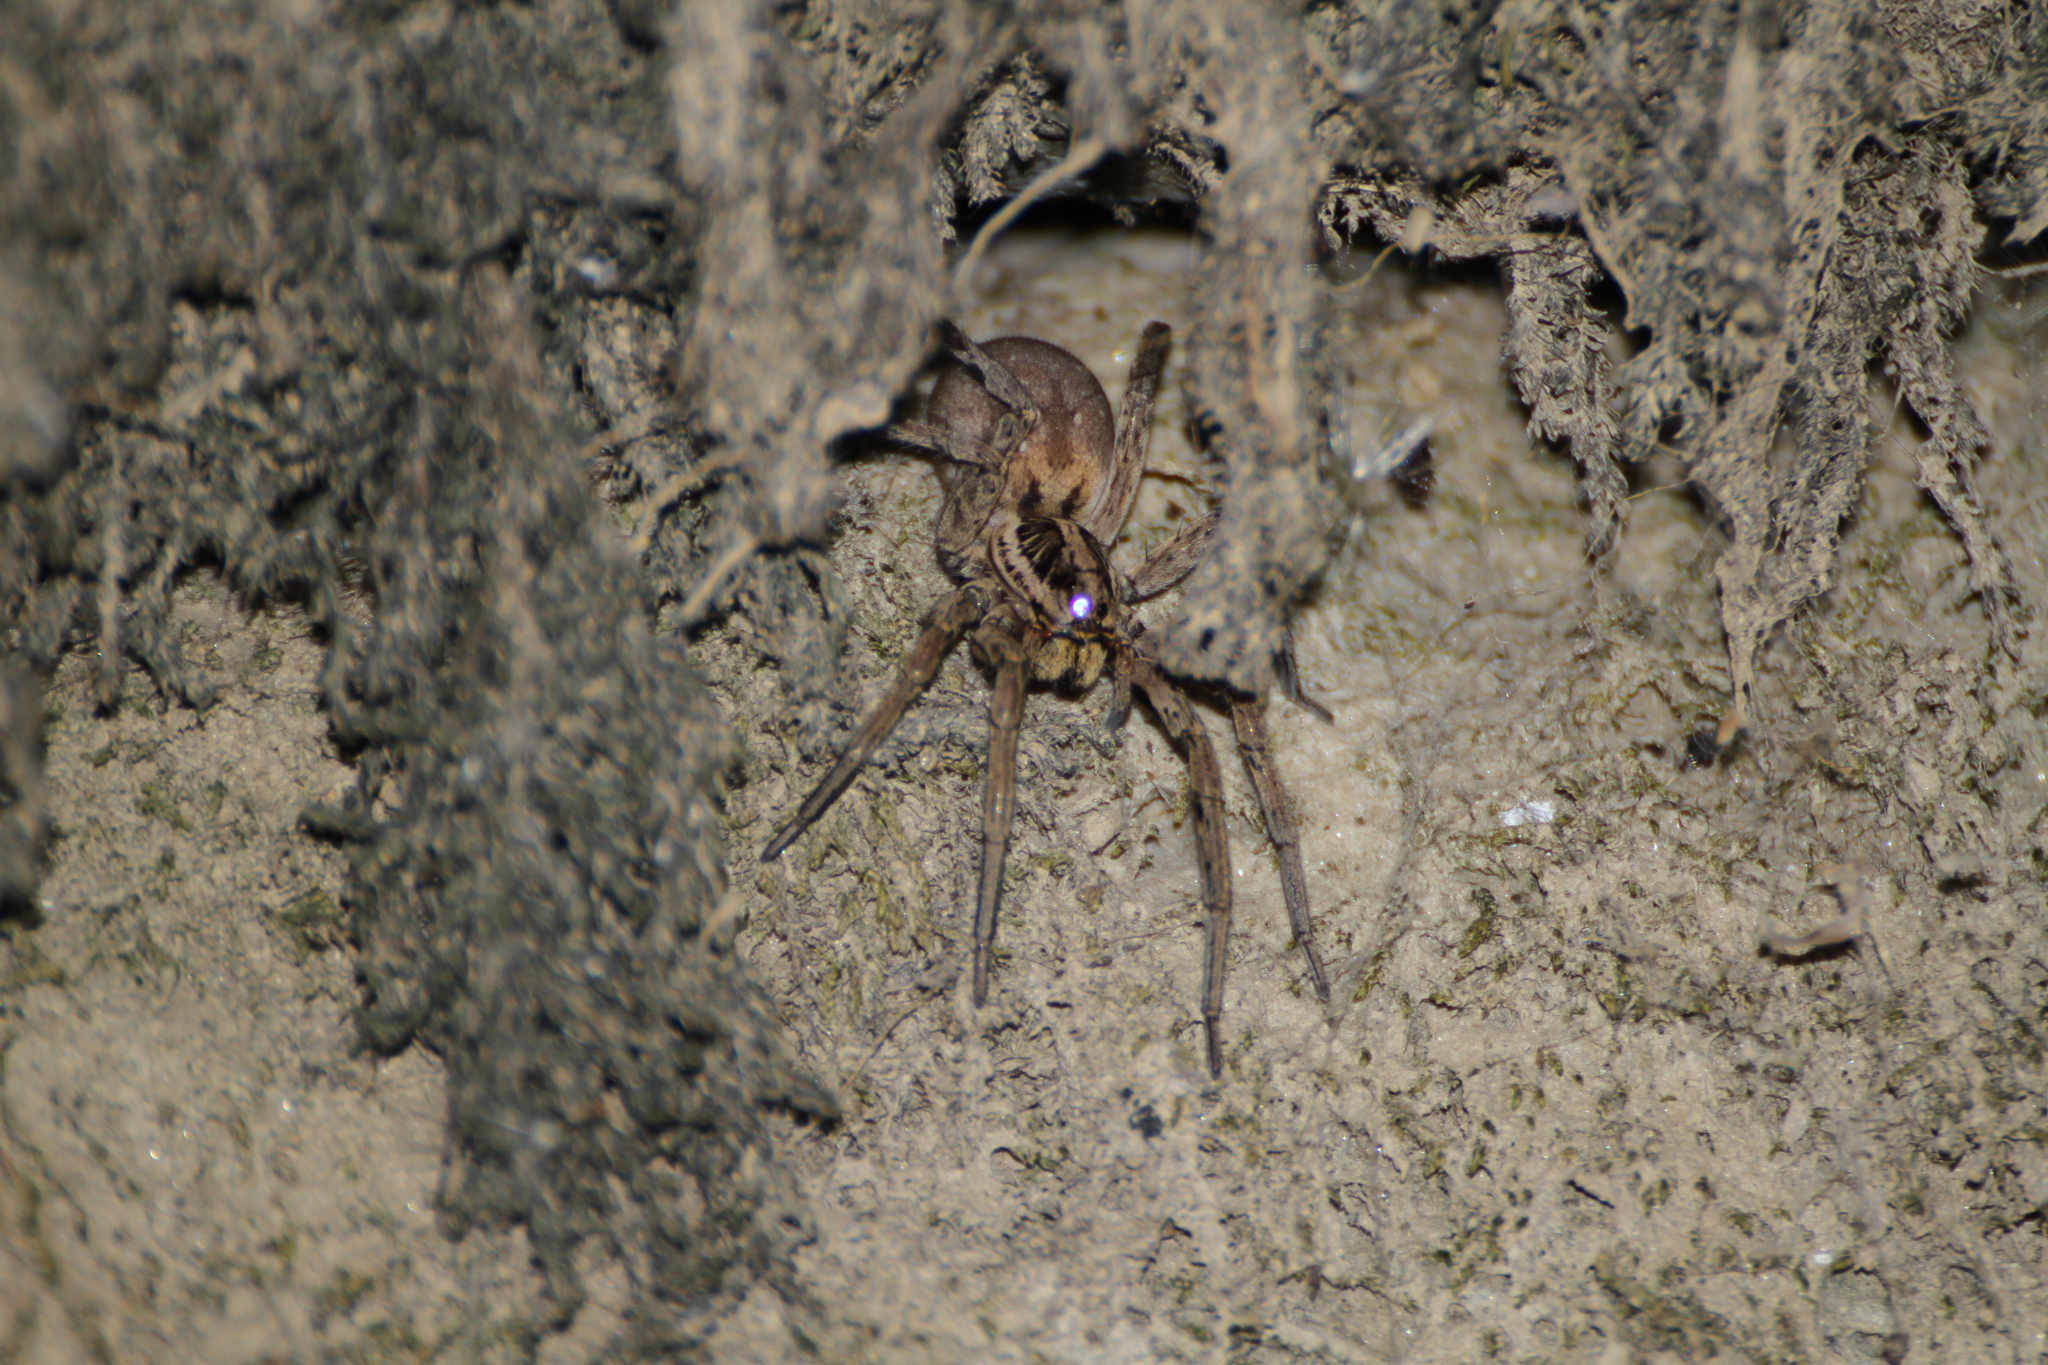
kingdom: Animalia
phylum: Arthropoda
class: Arachnida
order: Araneae
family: Lycosidae
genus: Hogna
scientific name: Hogna radiata
